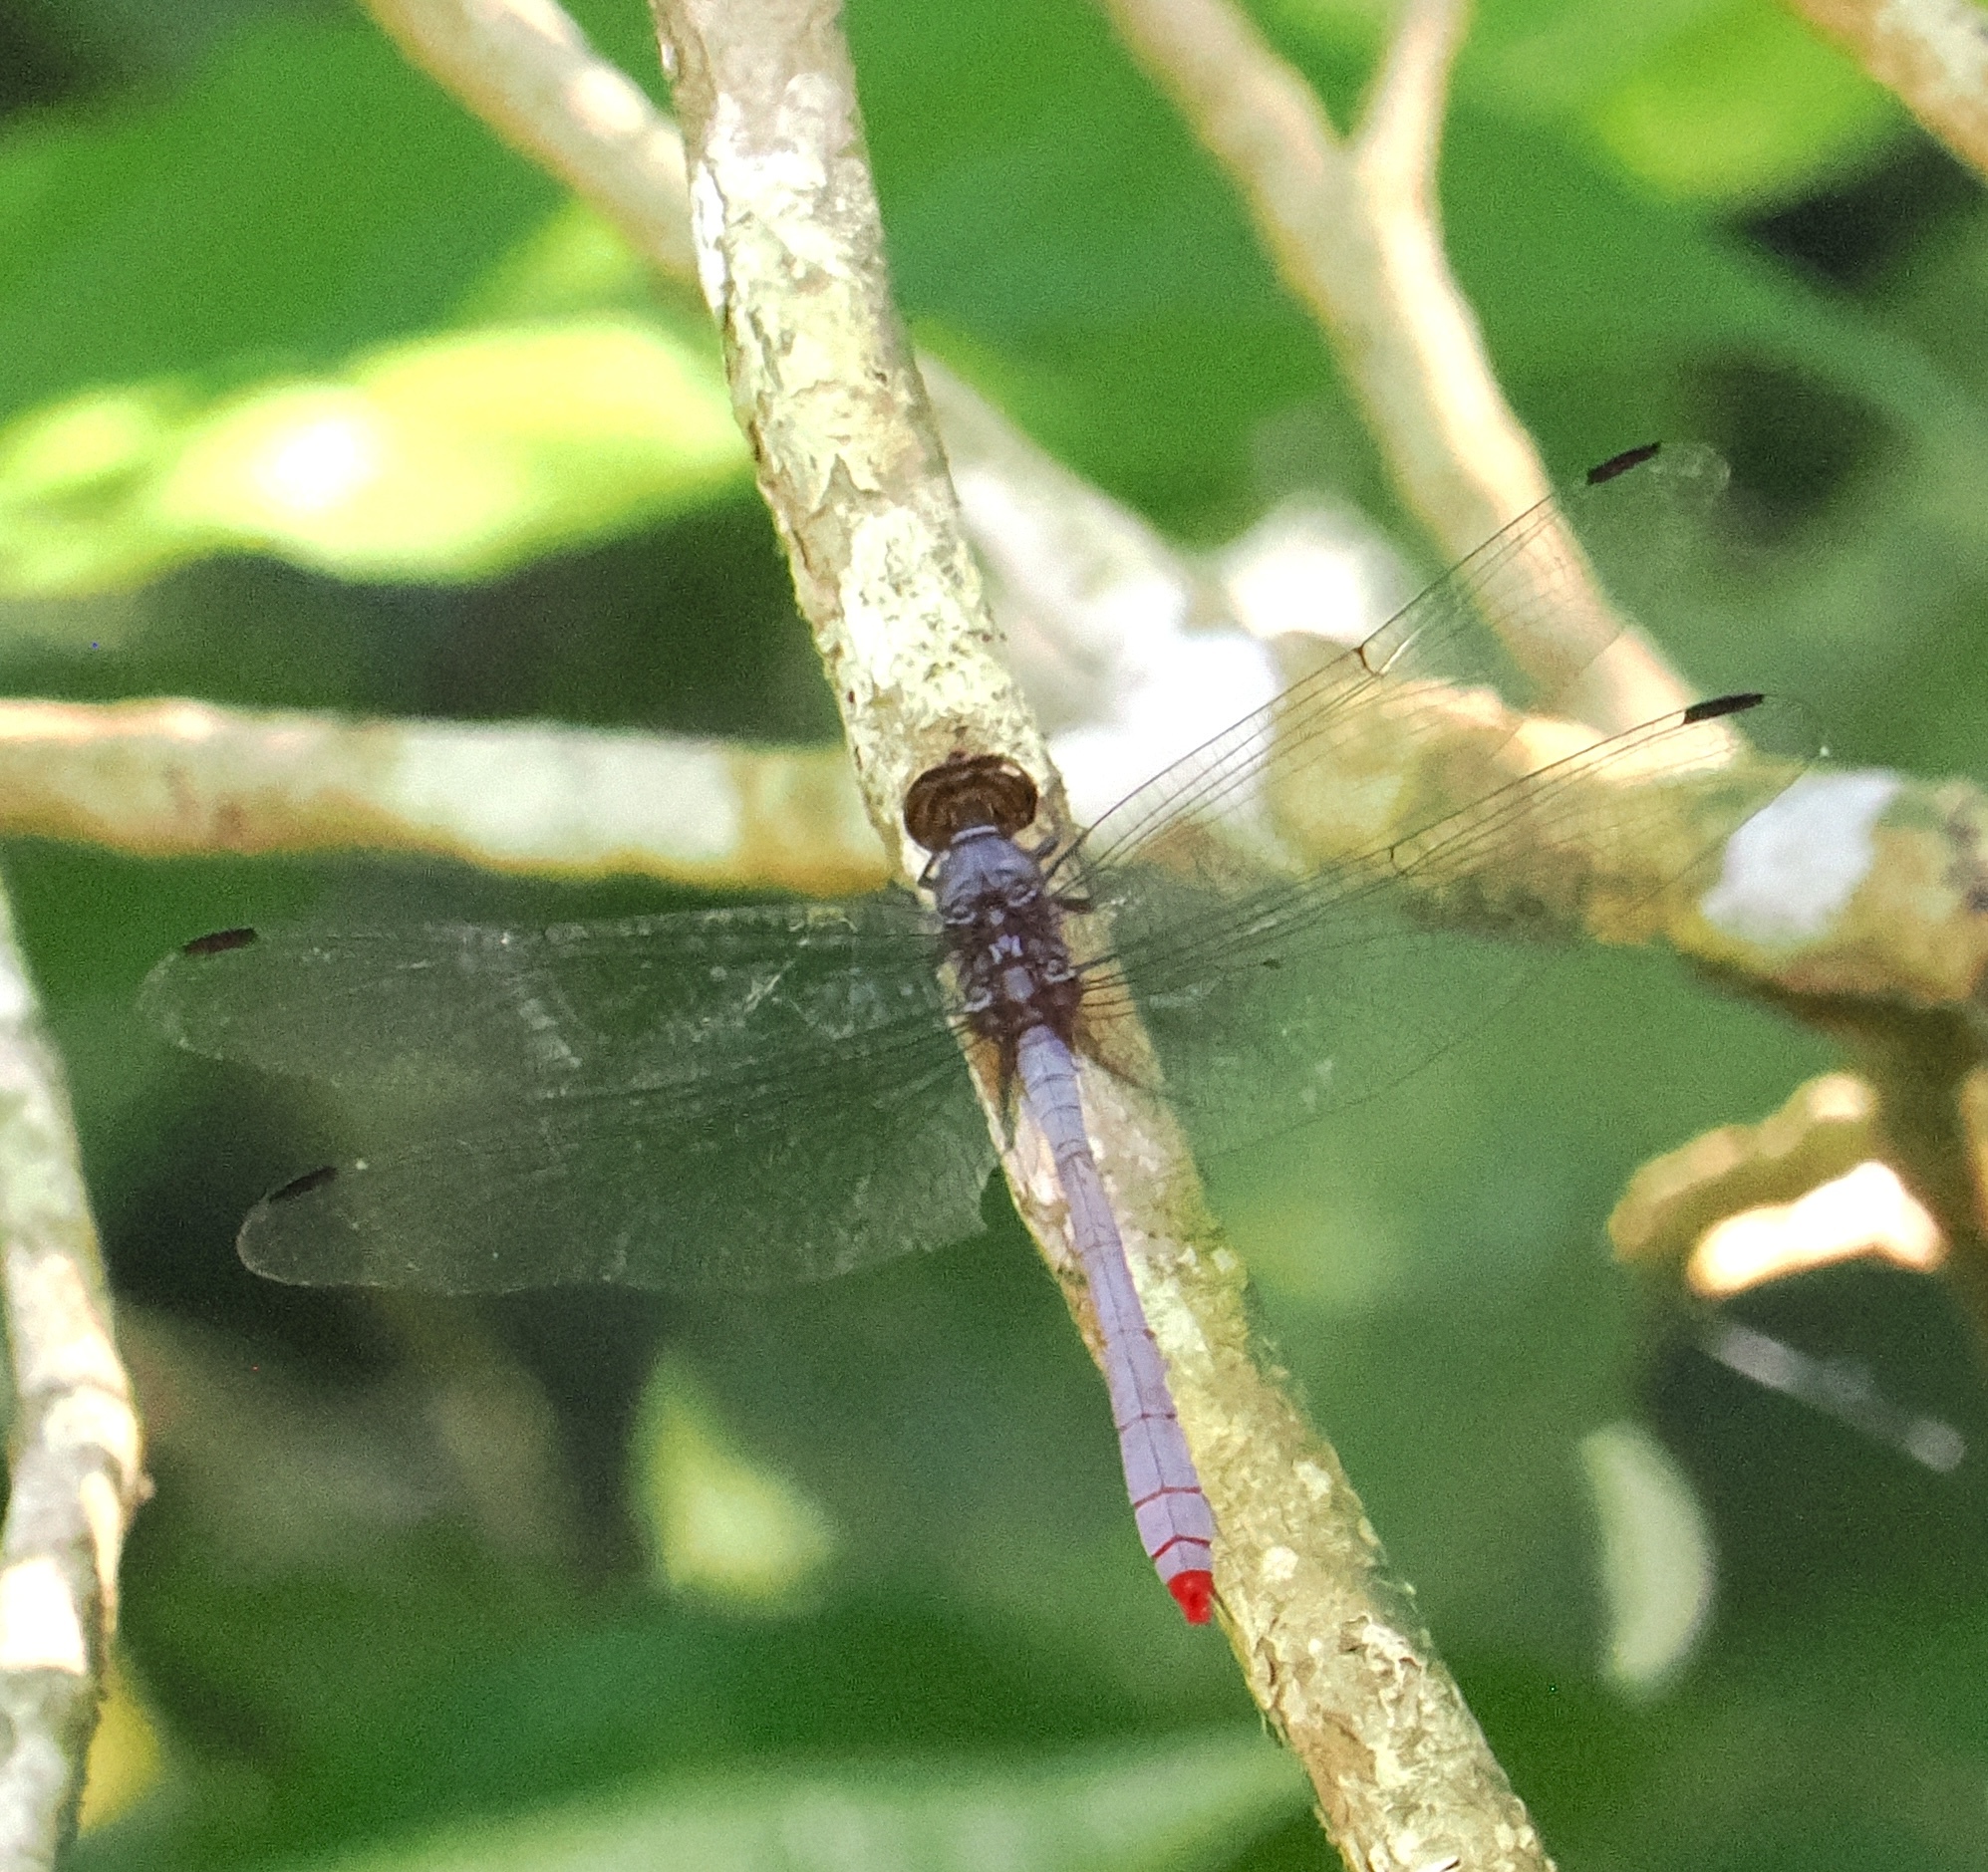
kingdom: Animalia
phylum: Arthropoda
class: Insecta
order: Odonata
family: Libellulidae
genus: Rhodopygia
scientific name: Rhodopygia pruinosa
